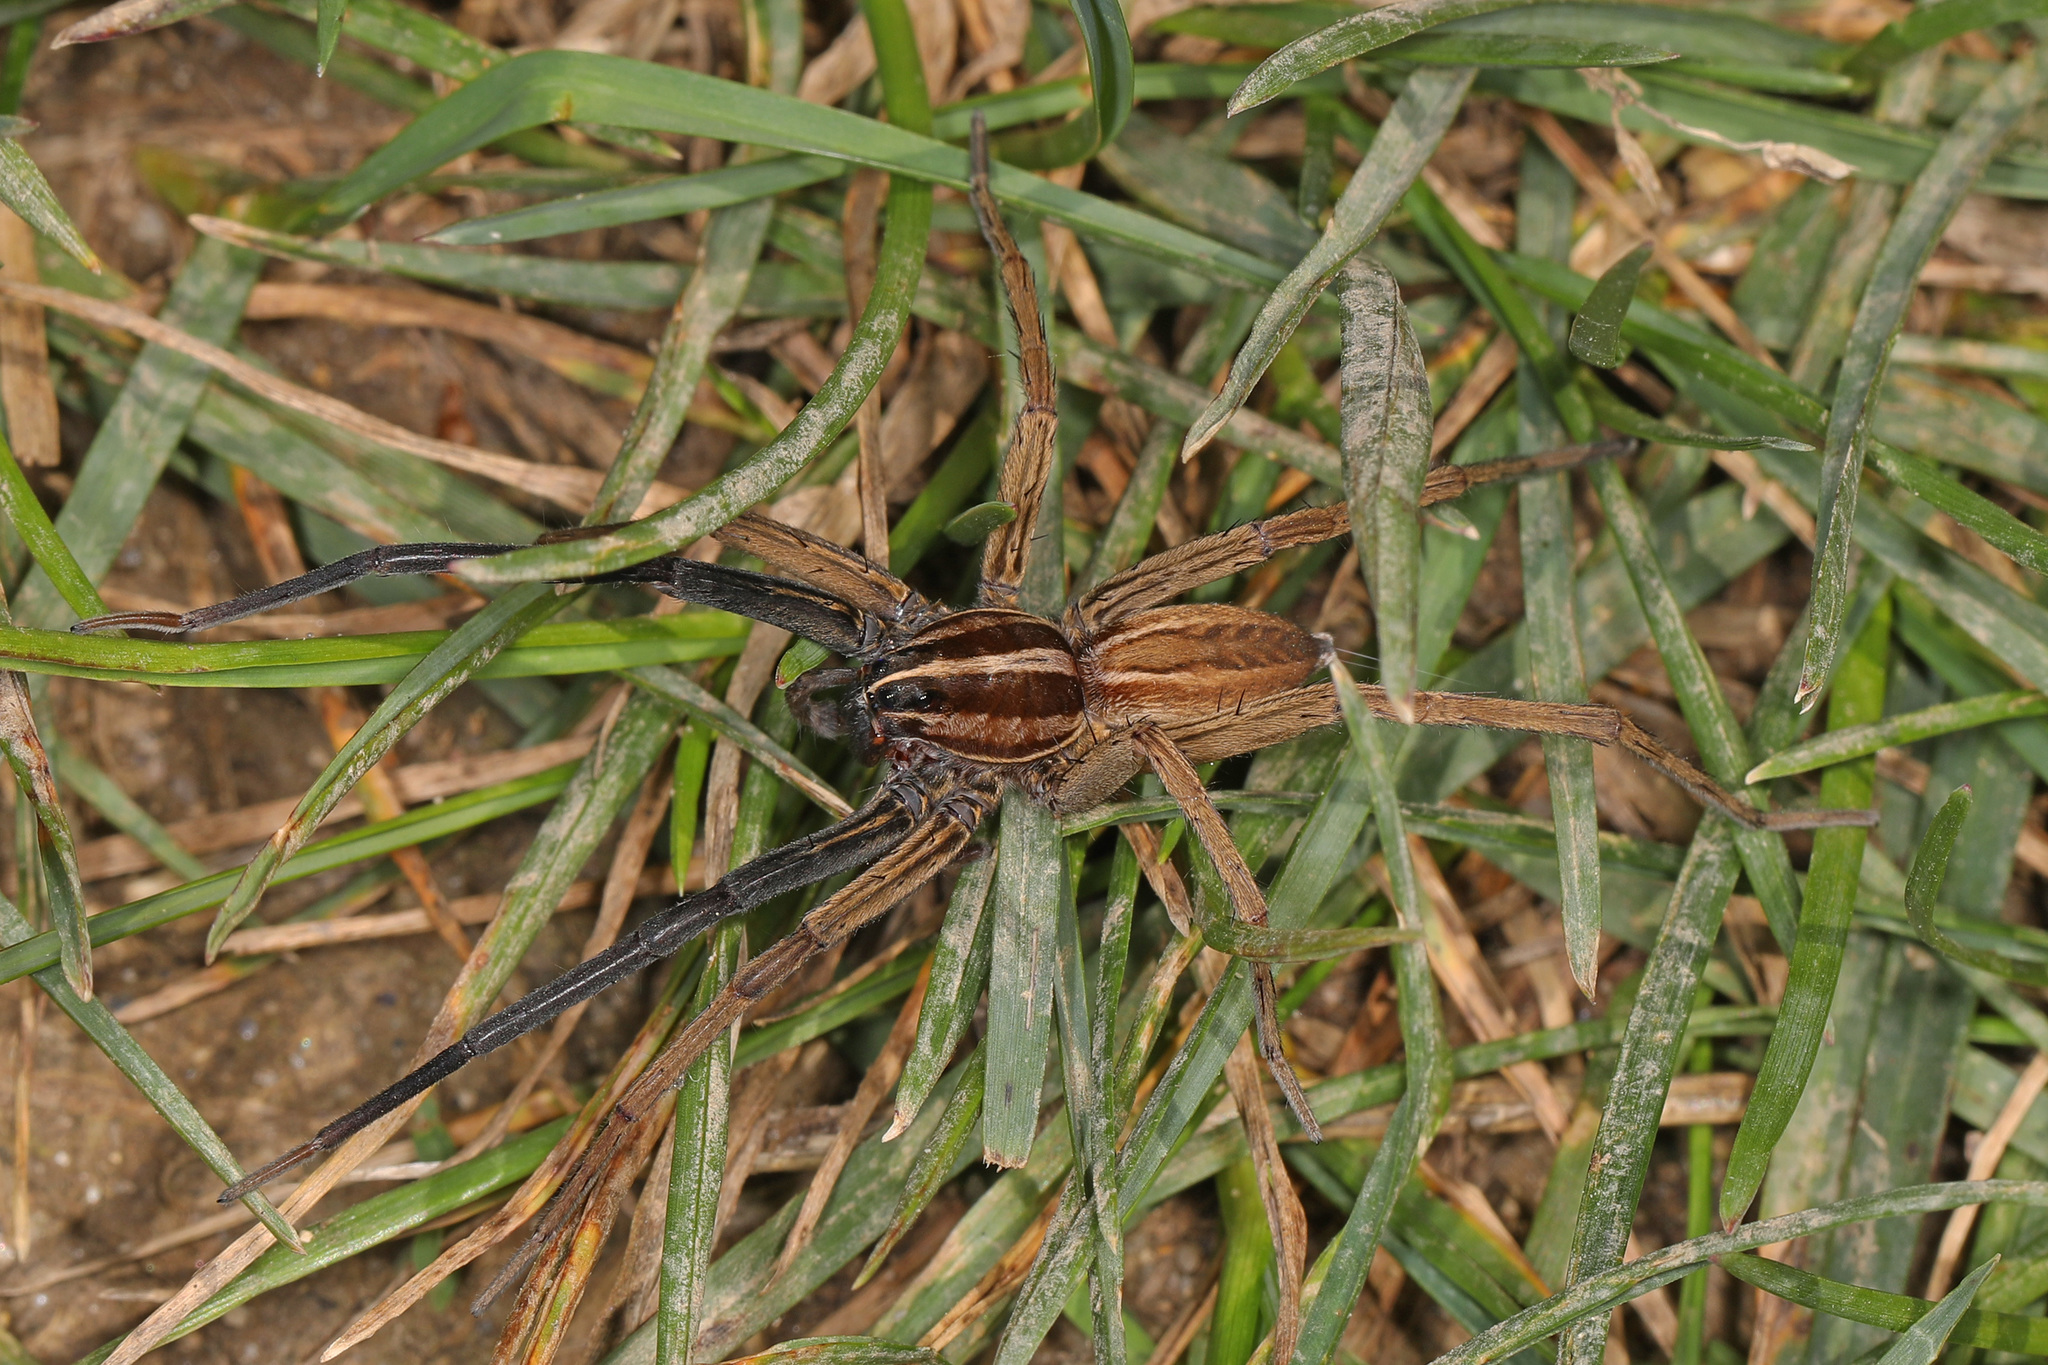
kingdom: Animalia
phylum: Arthropoda
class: Arachnida
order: Araneae
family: Lycosidae
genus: Rabidosa
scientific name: Rabidosa rabida
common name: Rabid wolf spider
